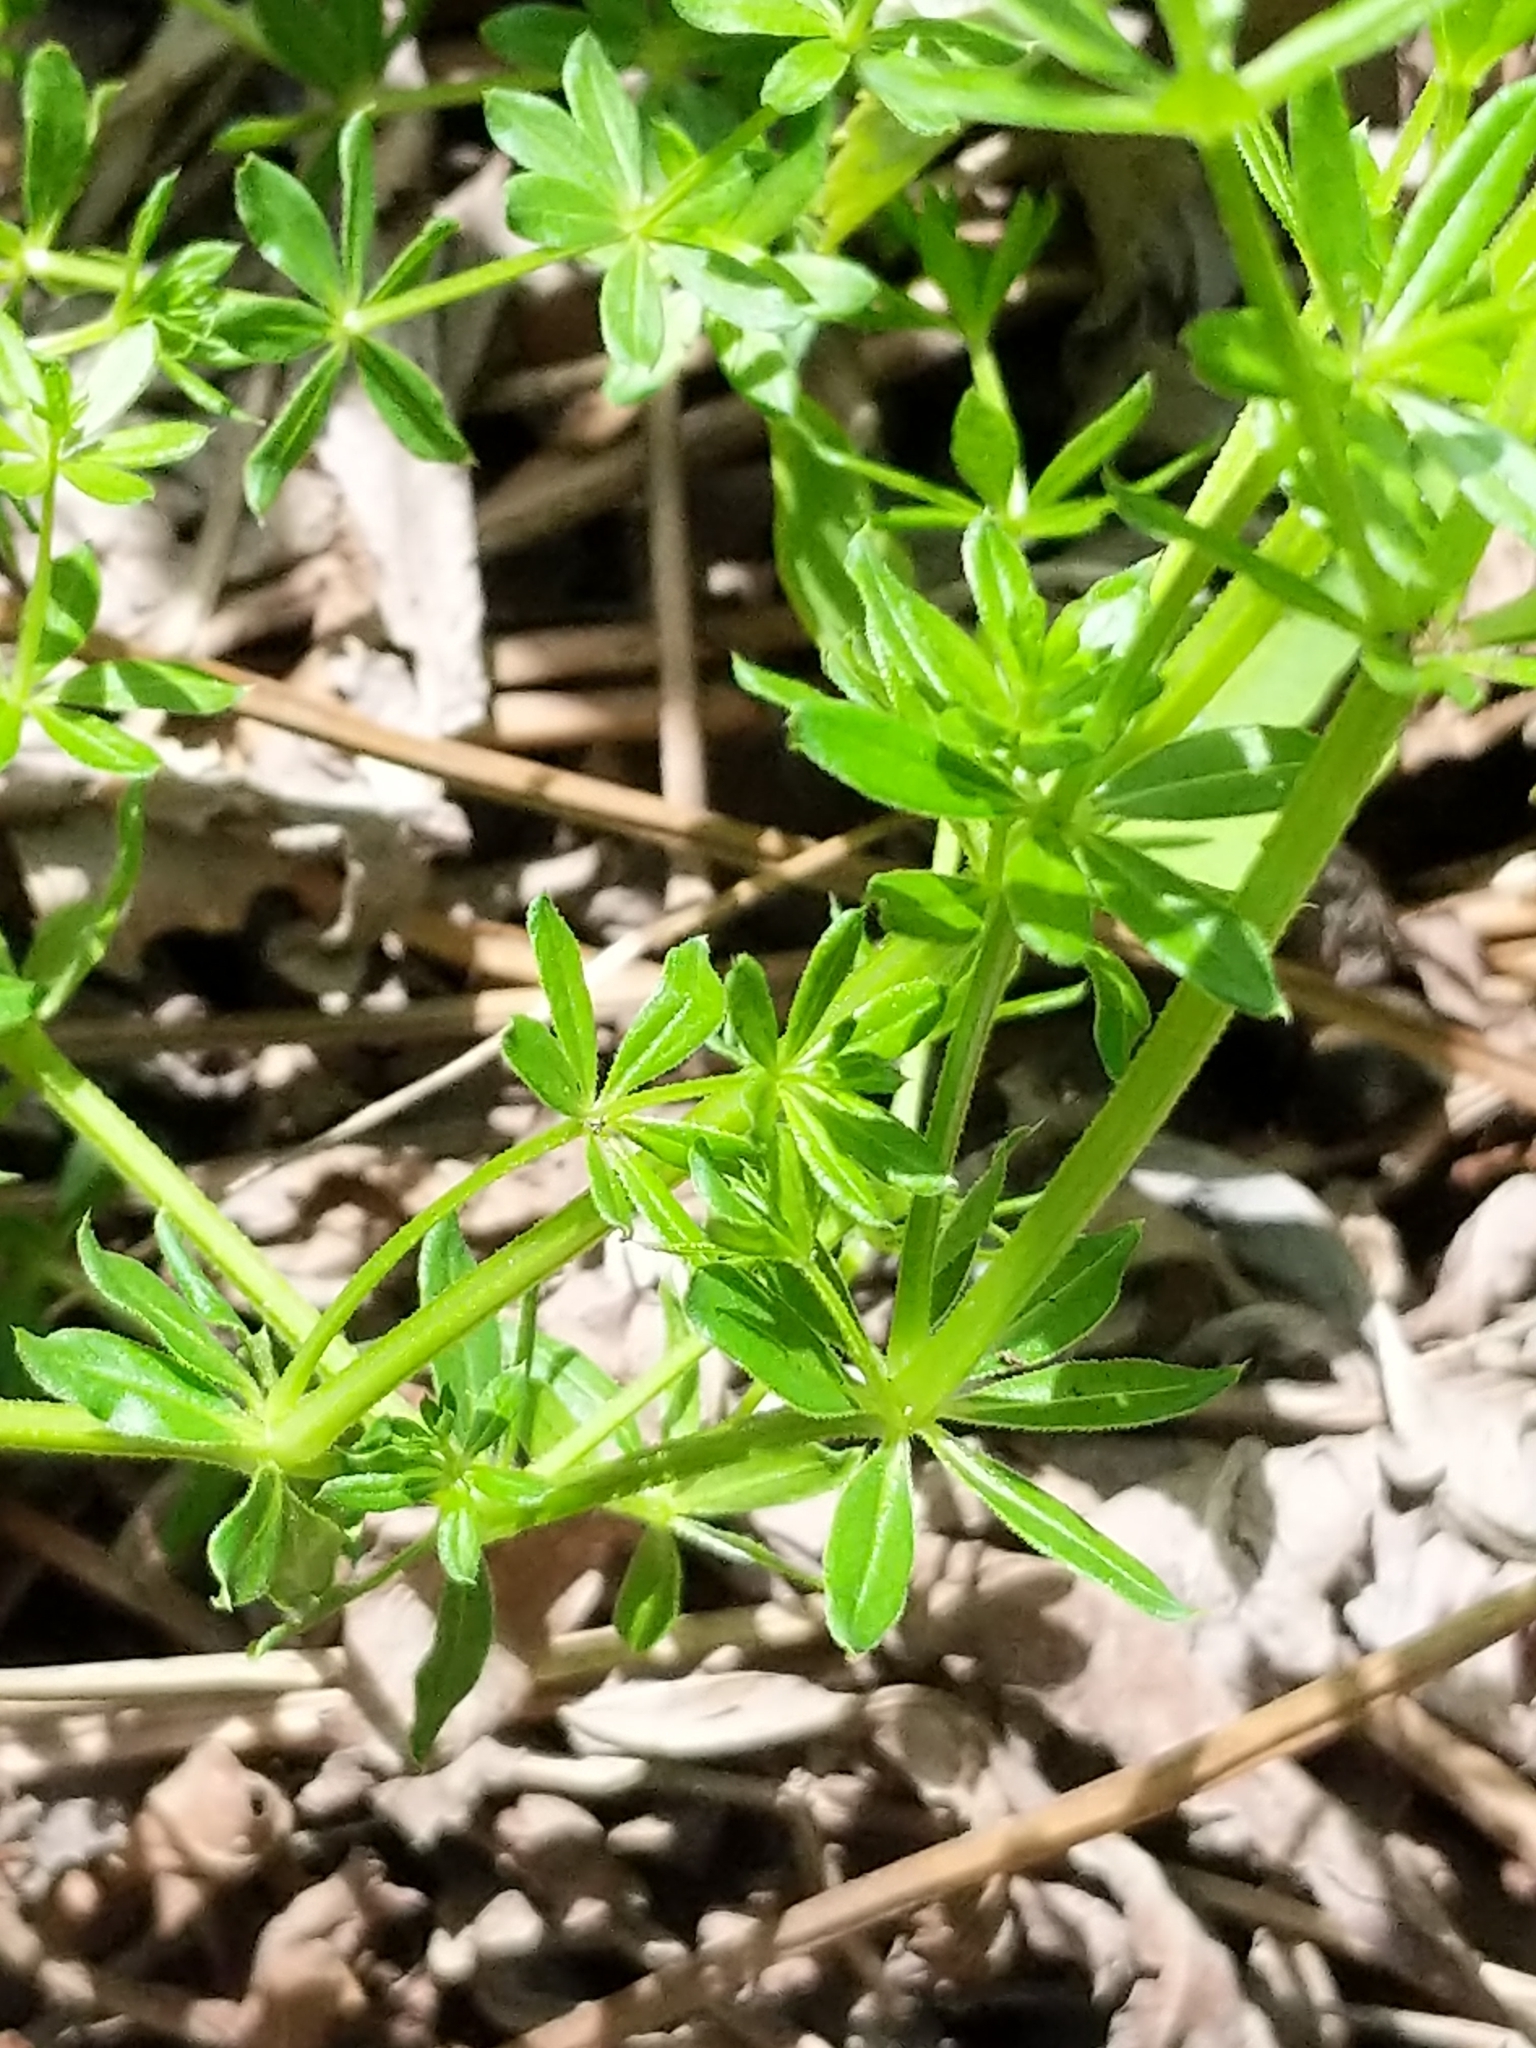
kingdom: Plantae
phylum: Tracheophyta
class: Magnoliopsida
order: Gentianales
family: Rubiaceae
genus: Galium
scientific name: Galium asprellum
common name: Rough bedstraw
